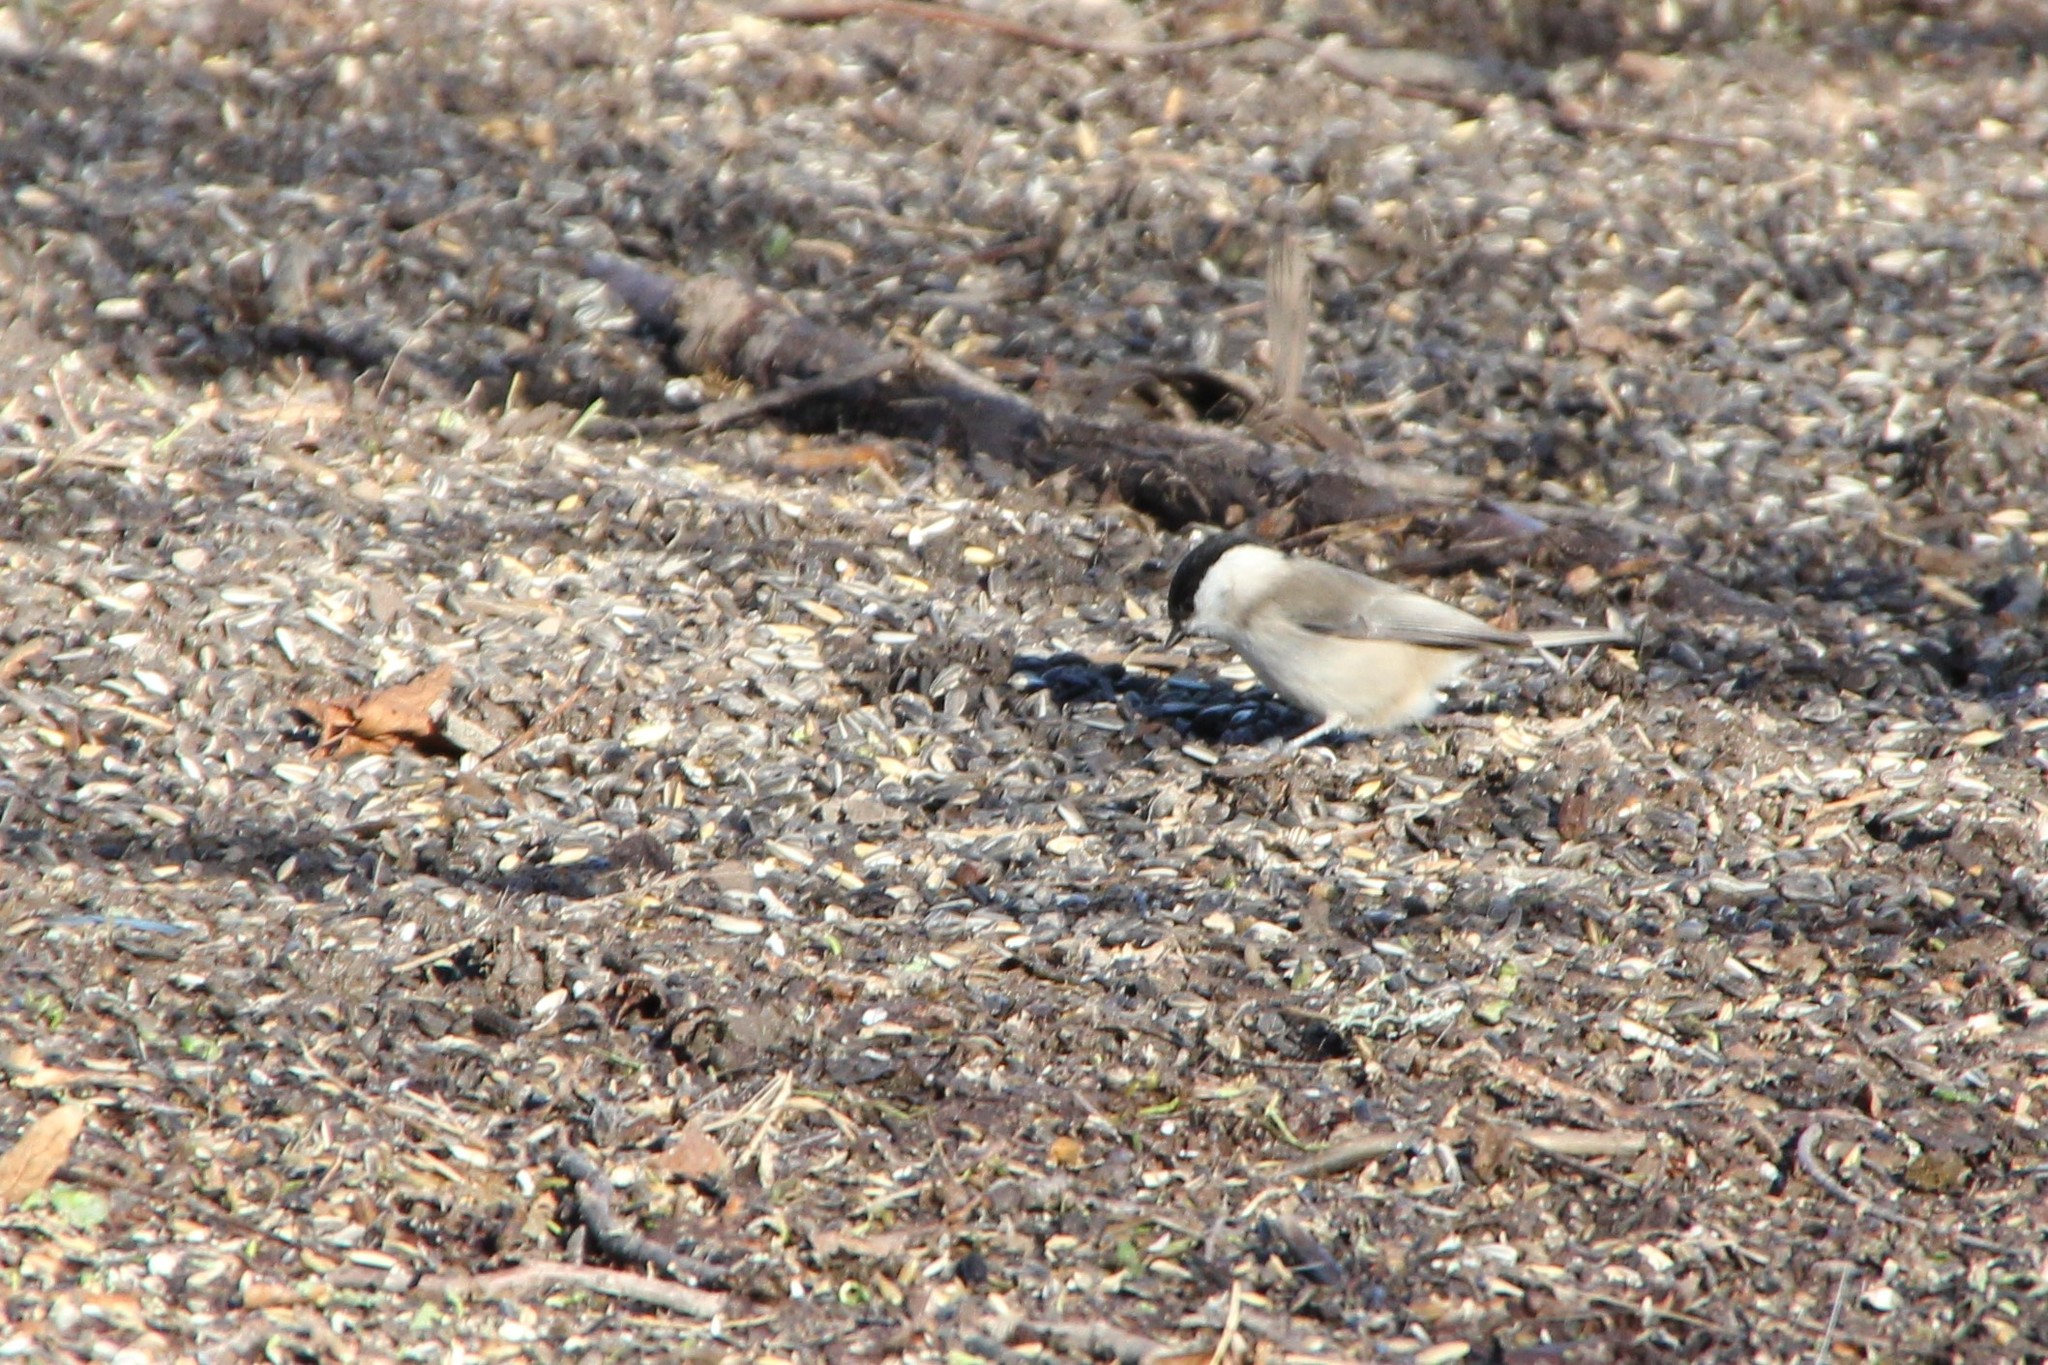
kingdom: Animalia
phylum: Chordata
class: Aves
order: Passeriformes
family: Paridae
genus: Poecile
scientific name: Poecile palustris
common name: Marsh tit
